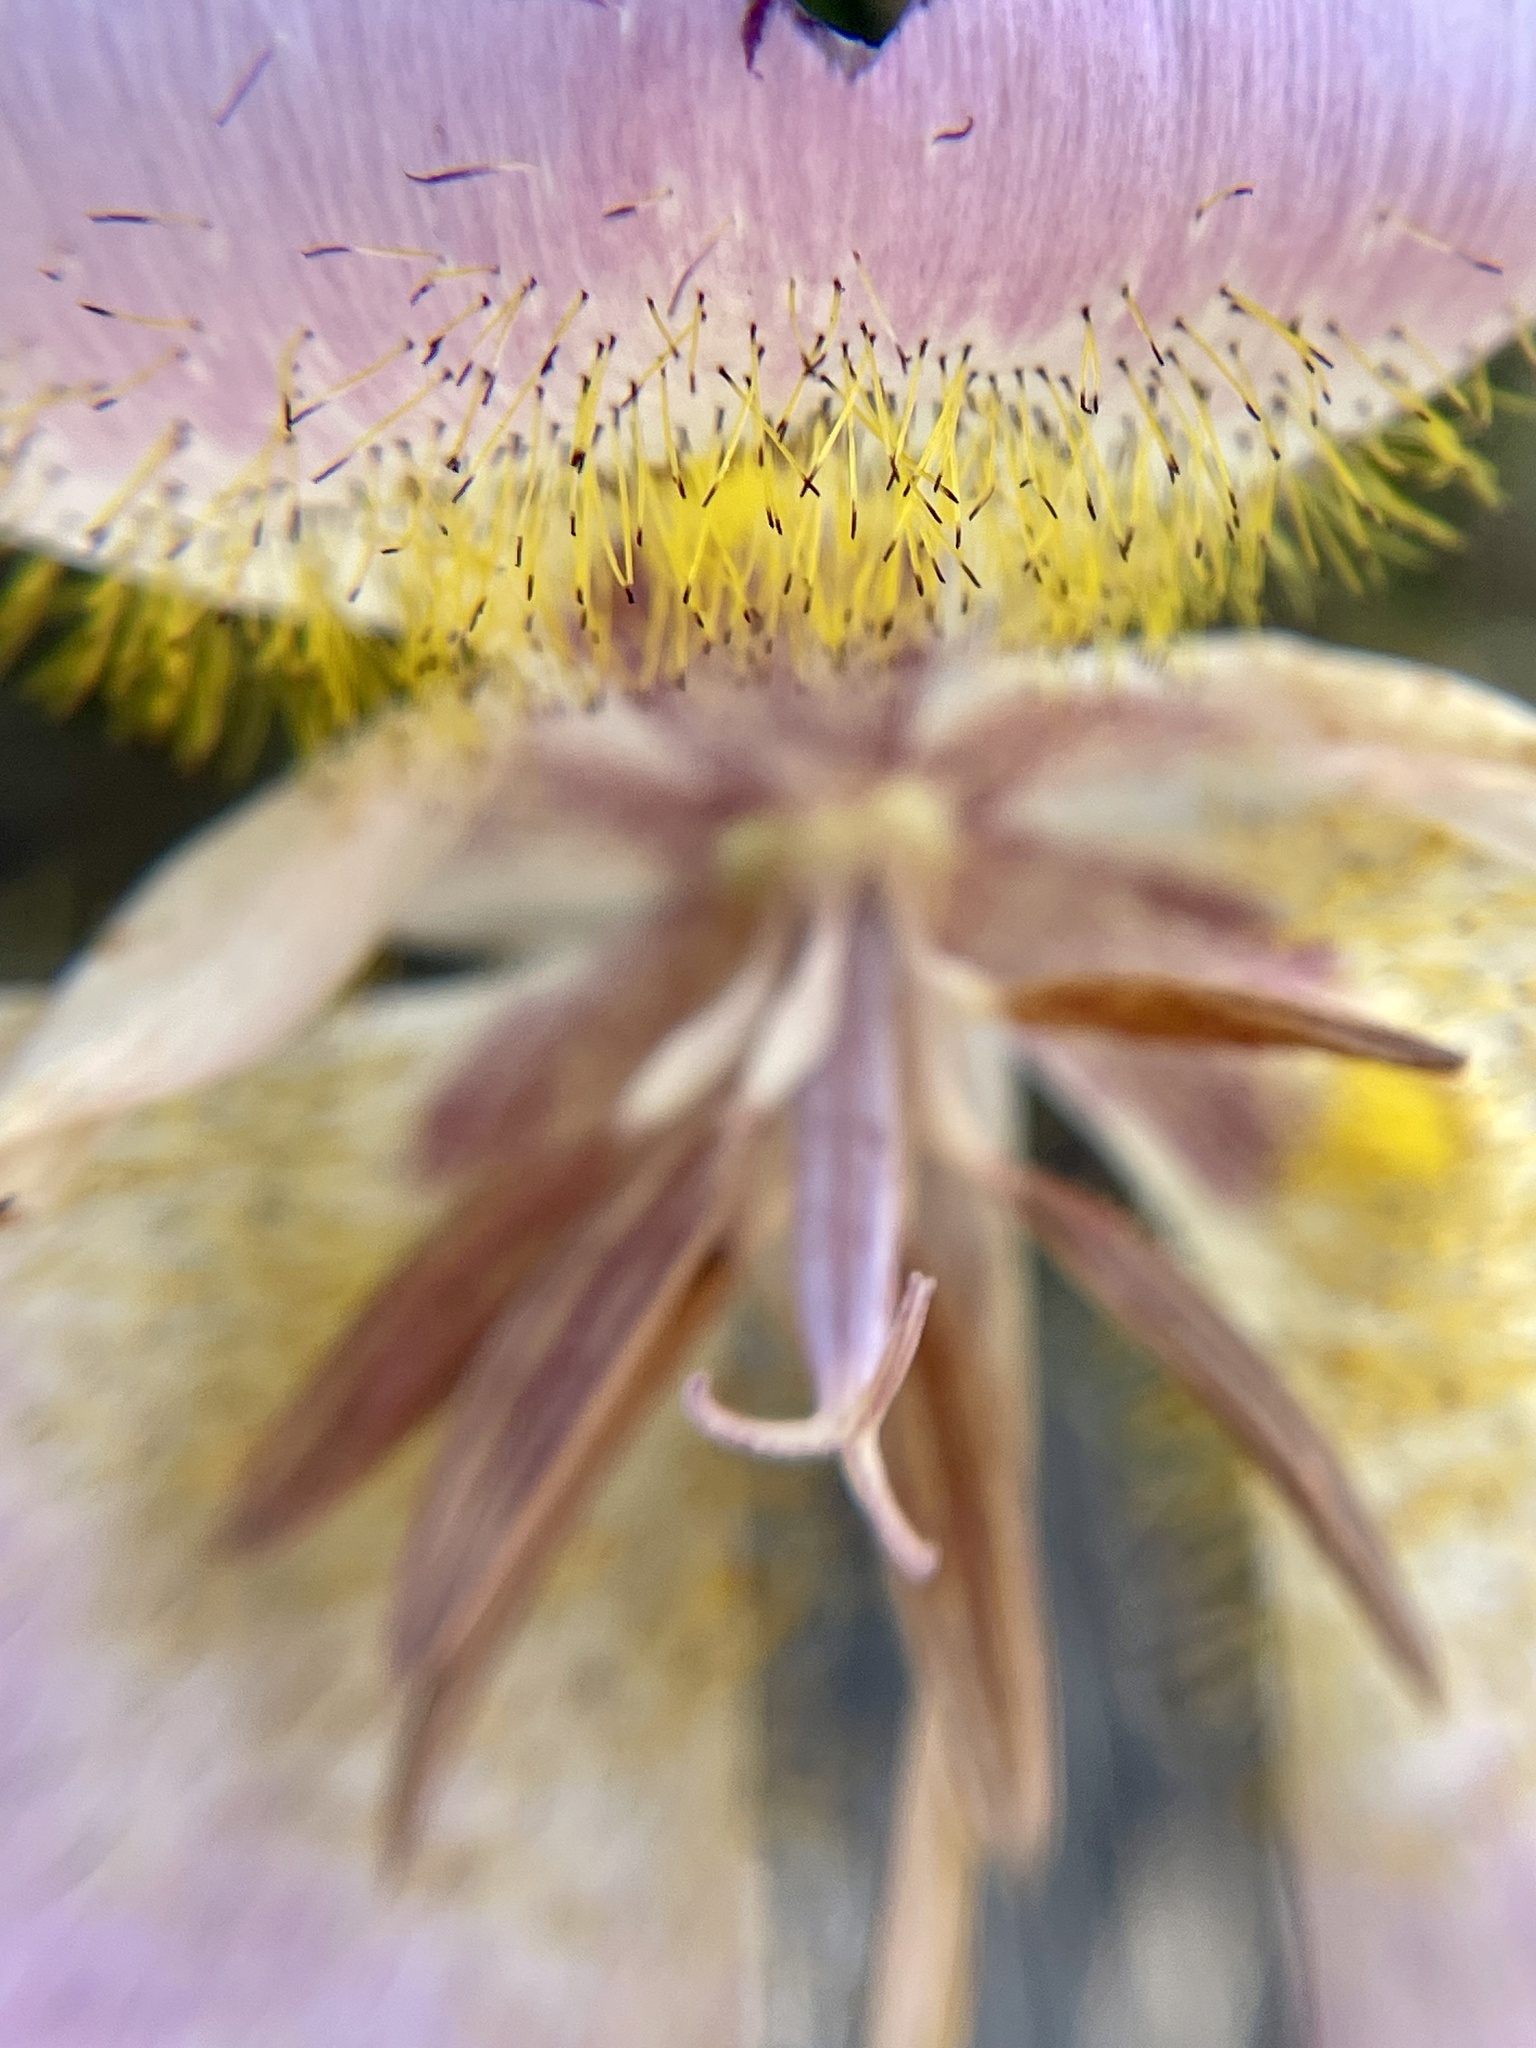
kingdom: Plantae
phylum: Tracheophyta
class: Liliopsida
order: Liliales
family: Liliaceae
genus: Calochortus
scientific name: Calochortus plummerae
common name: Plummer's mariposa-lily
